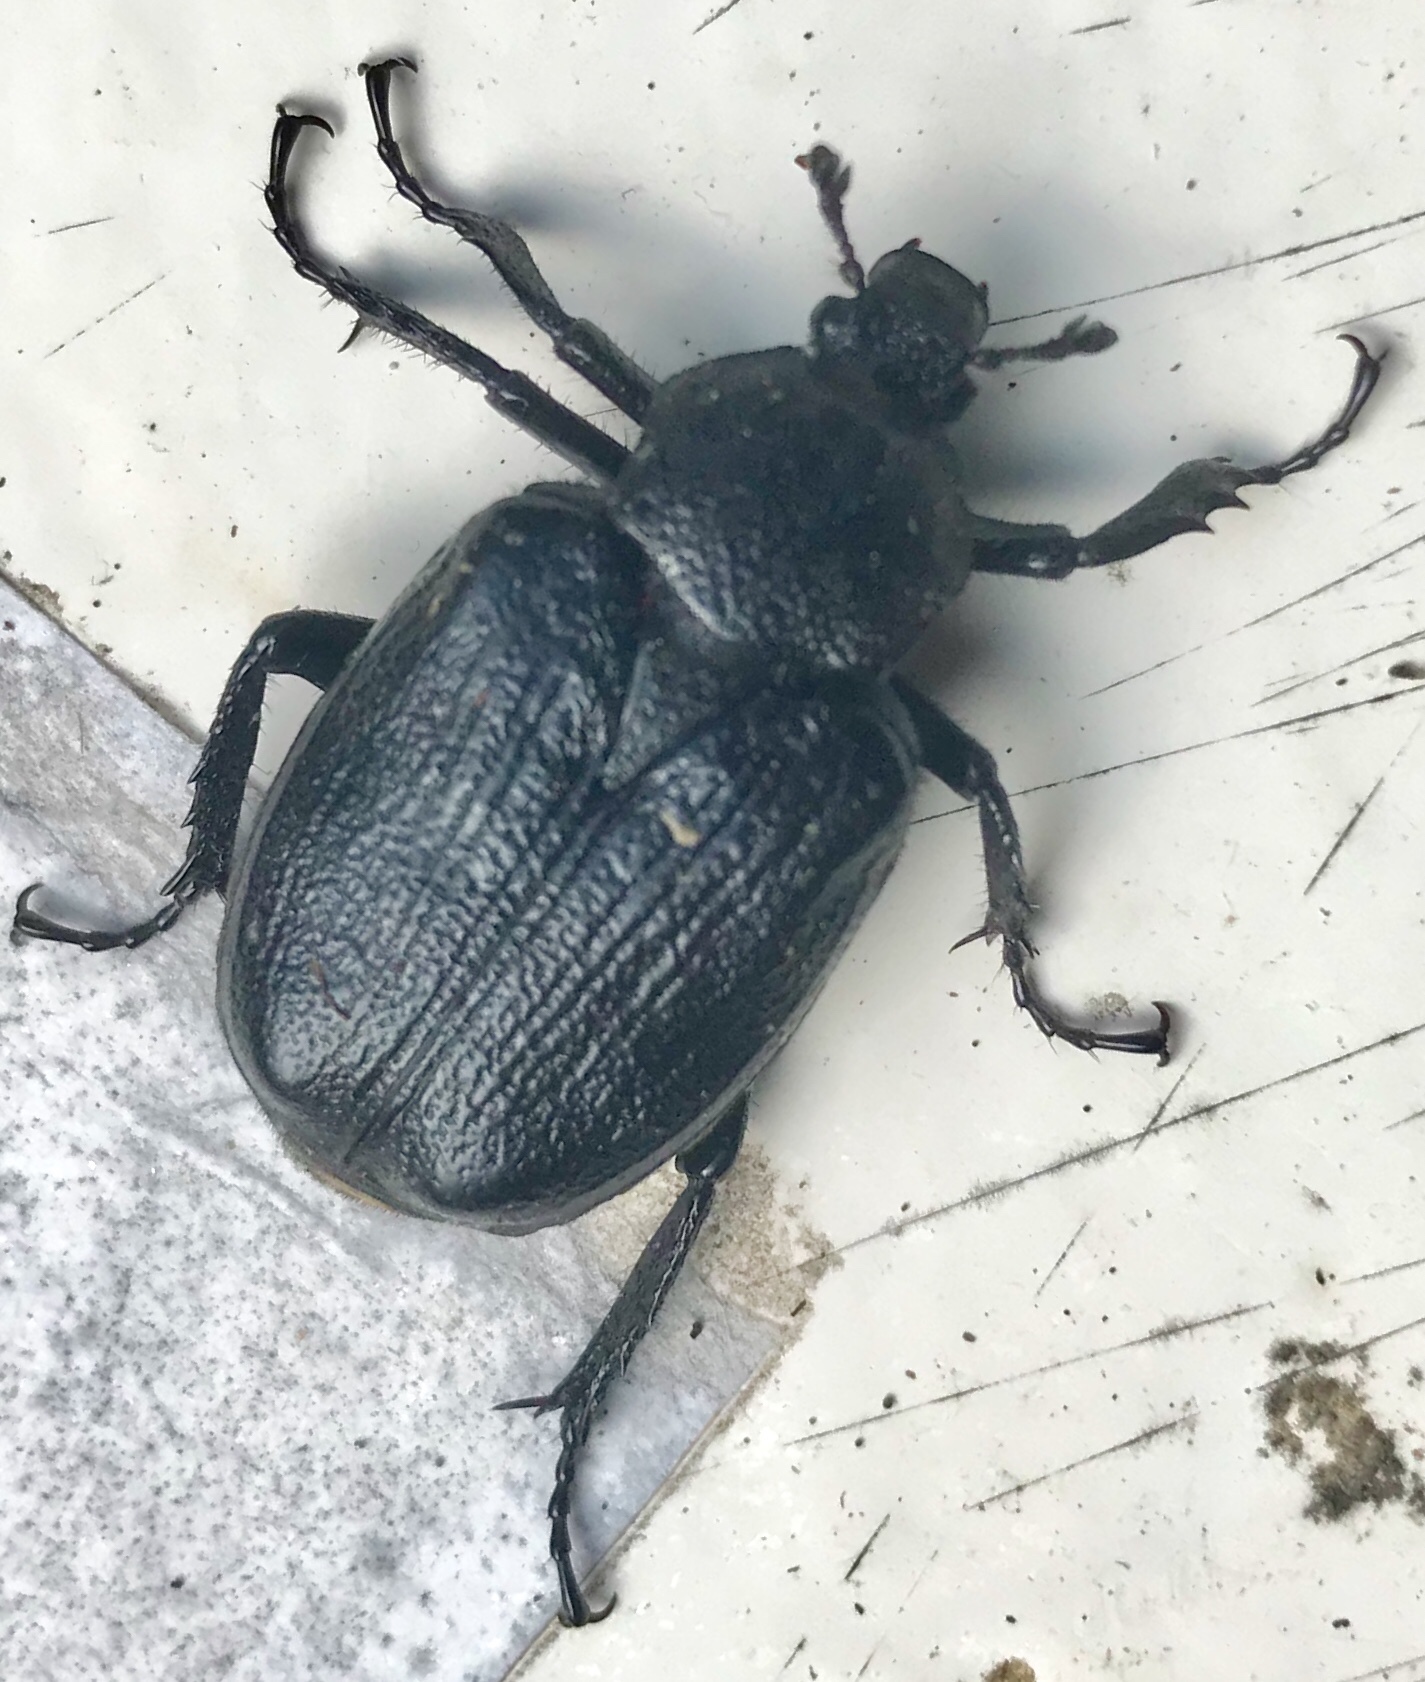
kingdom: Animalia
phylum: Arthropoda
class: Insecta
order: Coleoptera
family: Scarabaeidae
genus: Osmoderma
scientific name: Osmoderma scabra
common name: Rough hermit beetle
